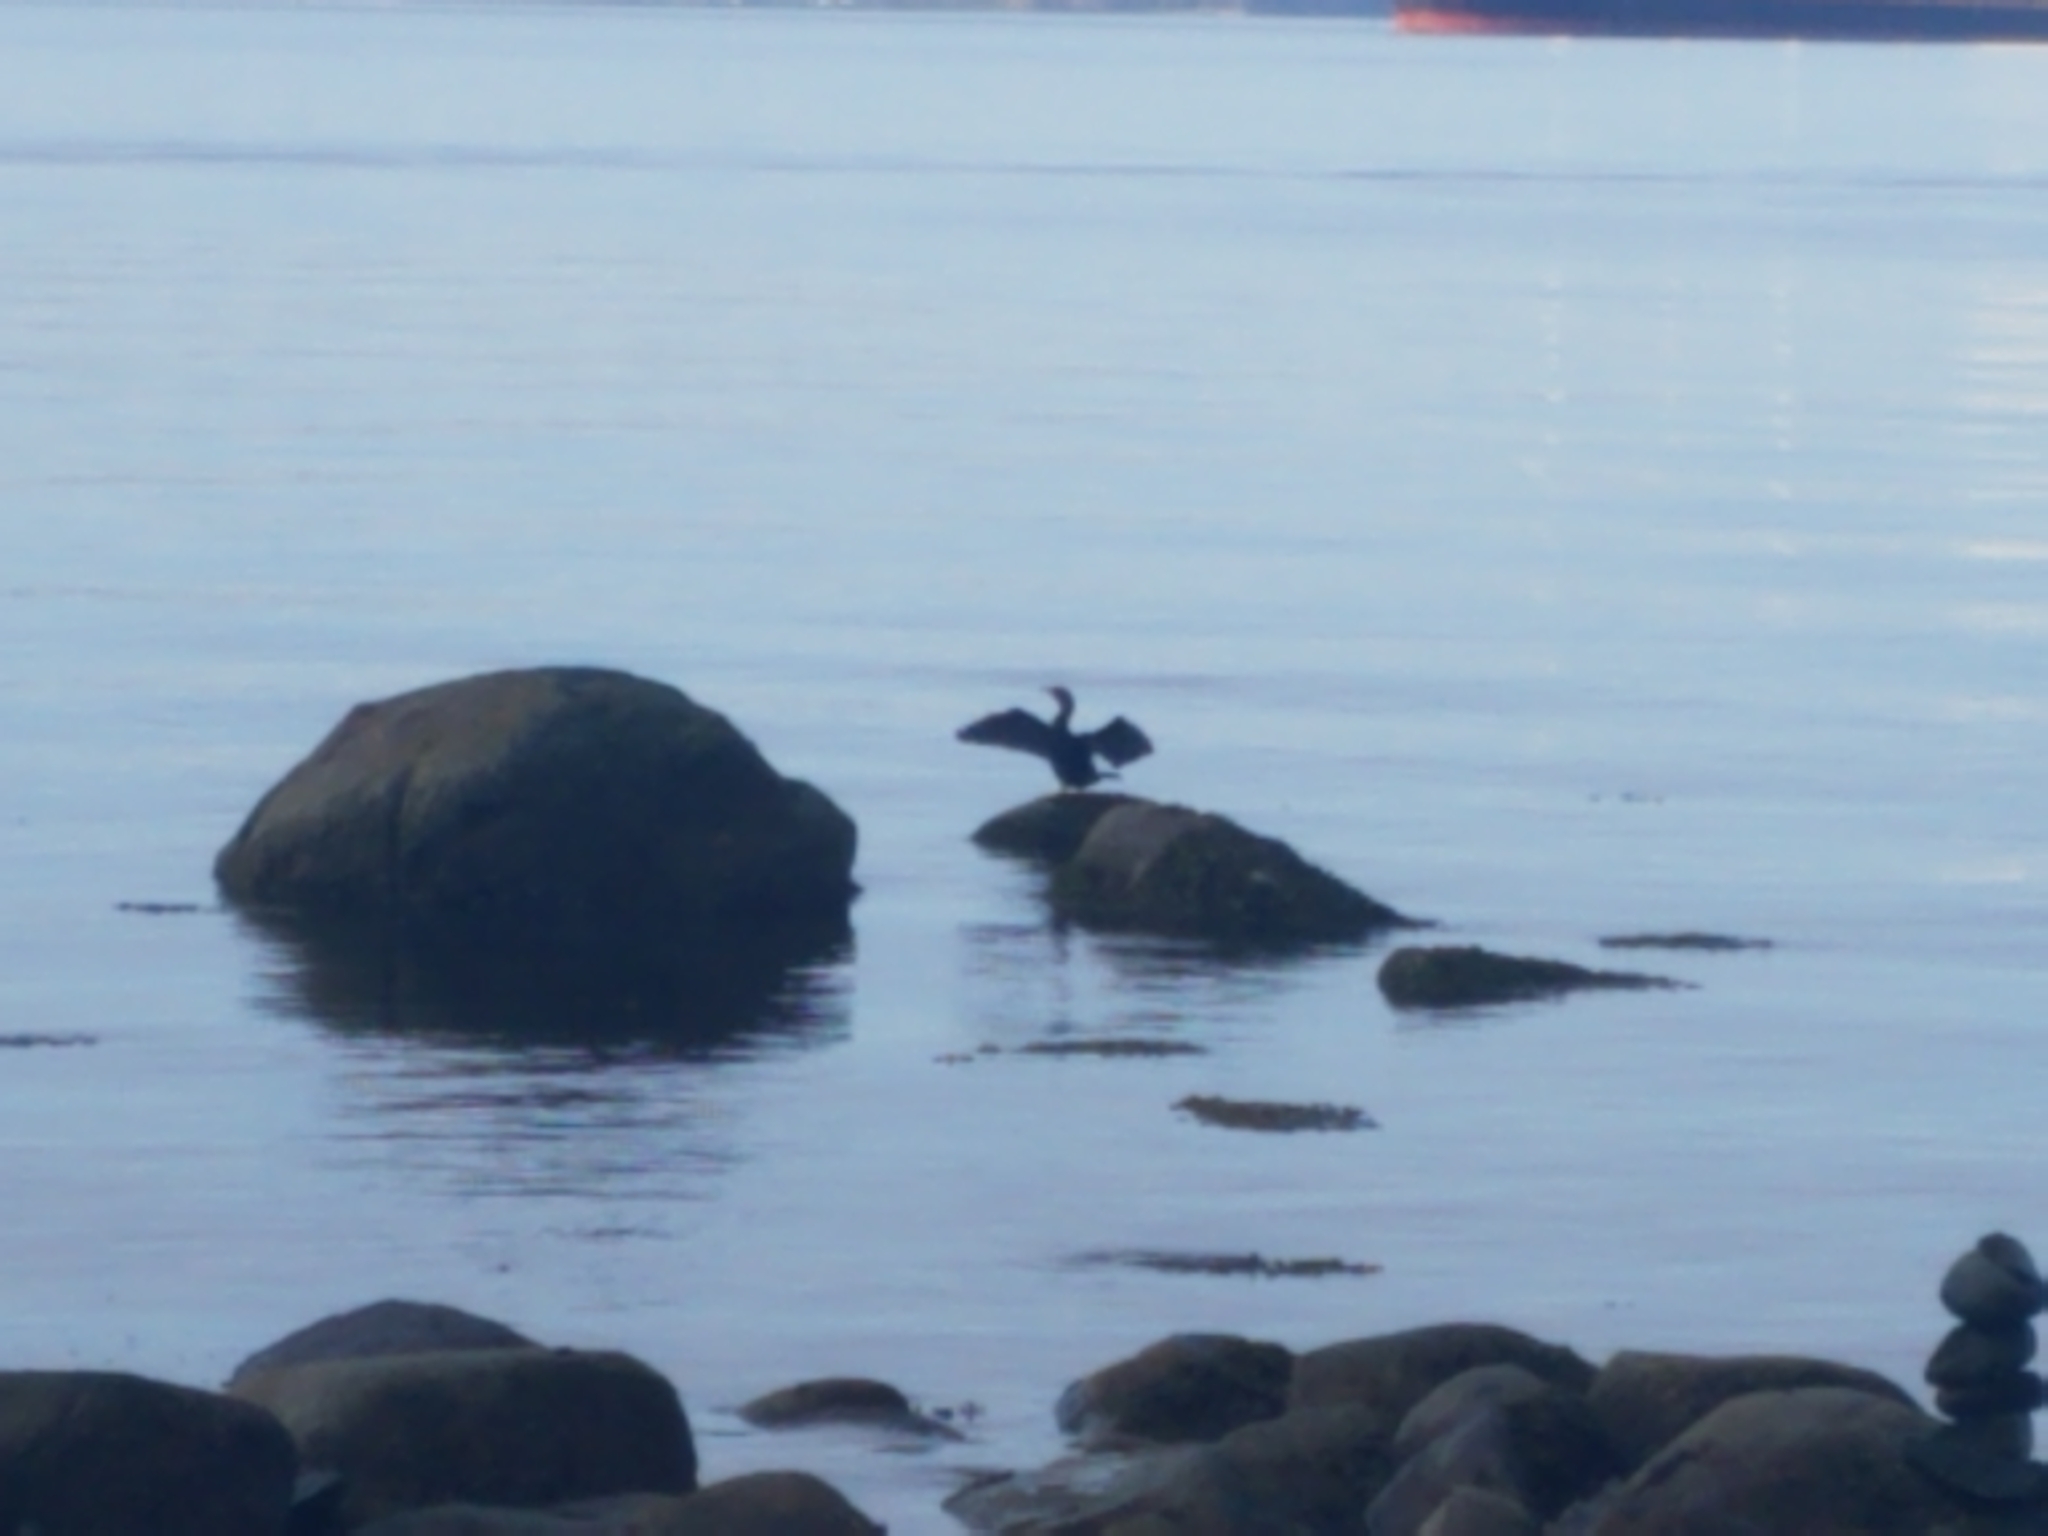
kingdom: Animalia
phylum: Chordata
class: Aves
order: Suliformes
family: Phalacrocoracidae
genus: Phalacrocorax
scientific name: Phalacrocorax auritus
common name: Double-crested cormorant
